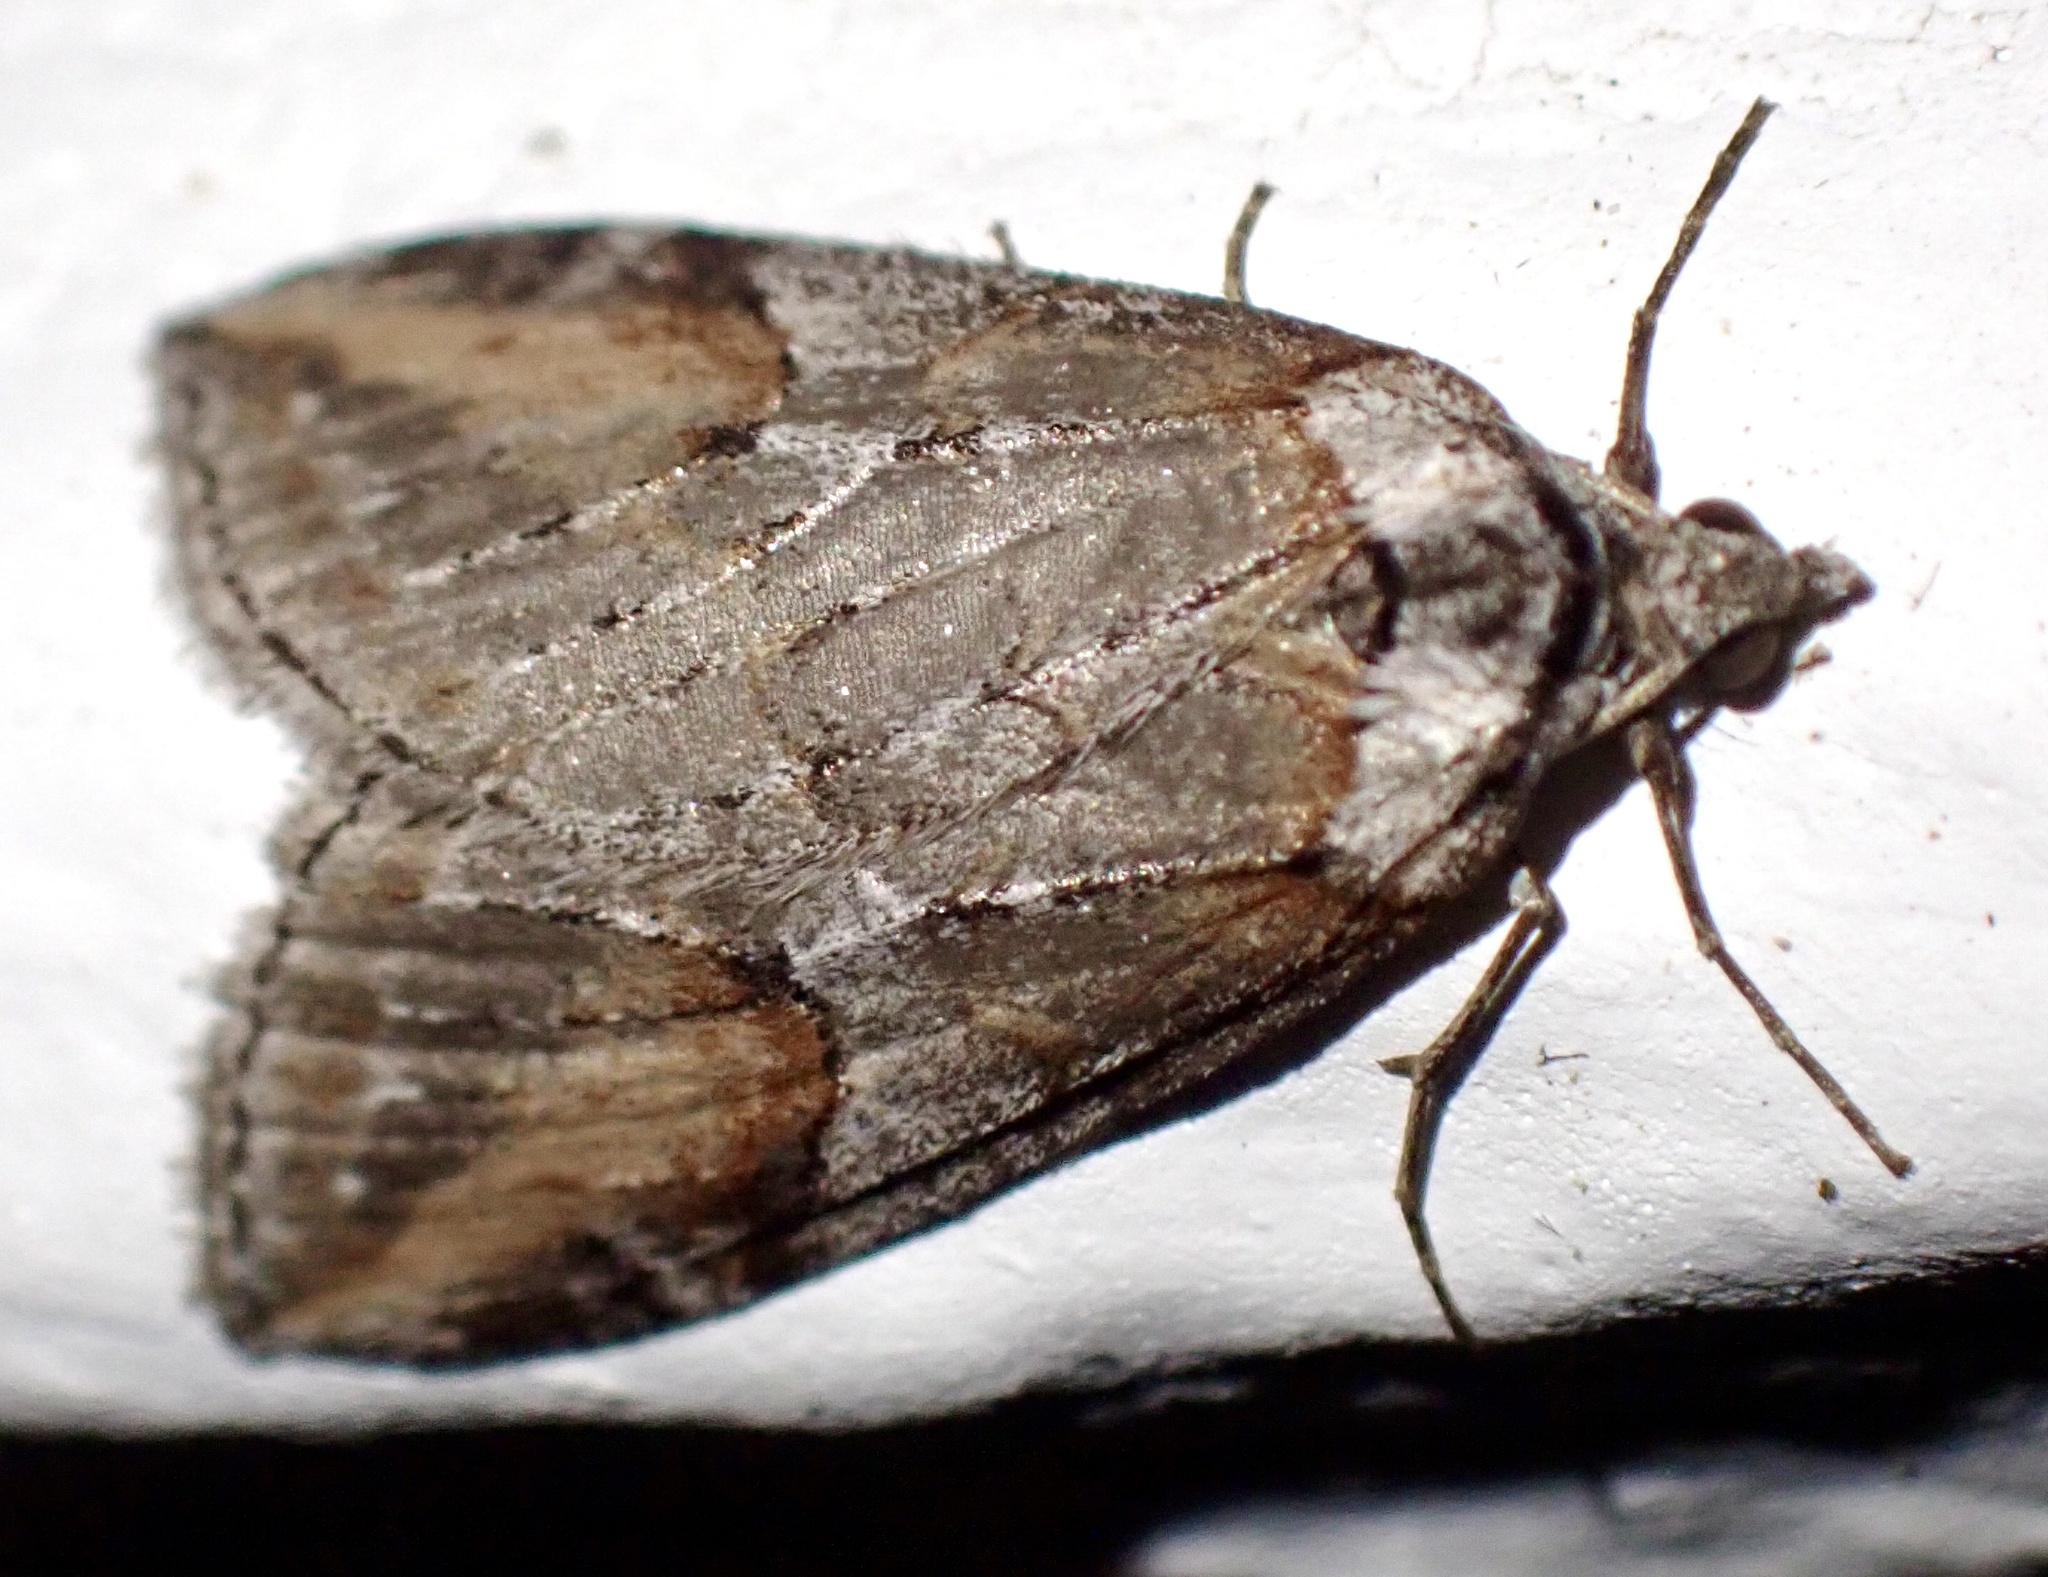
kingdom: Animalia
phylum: Arthropoda
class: Insecta
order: Lepidoptera
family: Geometridae
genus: Chesias
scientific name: Chesias rufata
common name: Broom-tip
